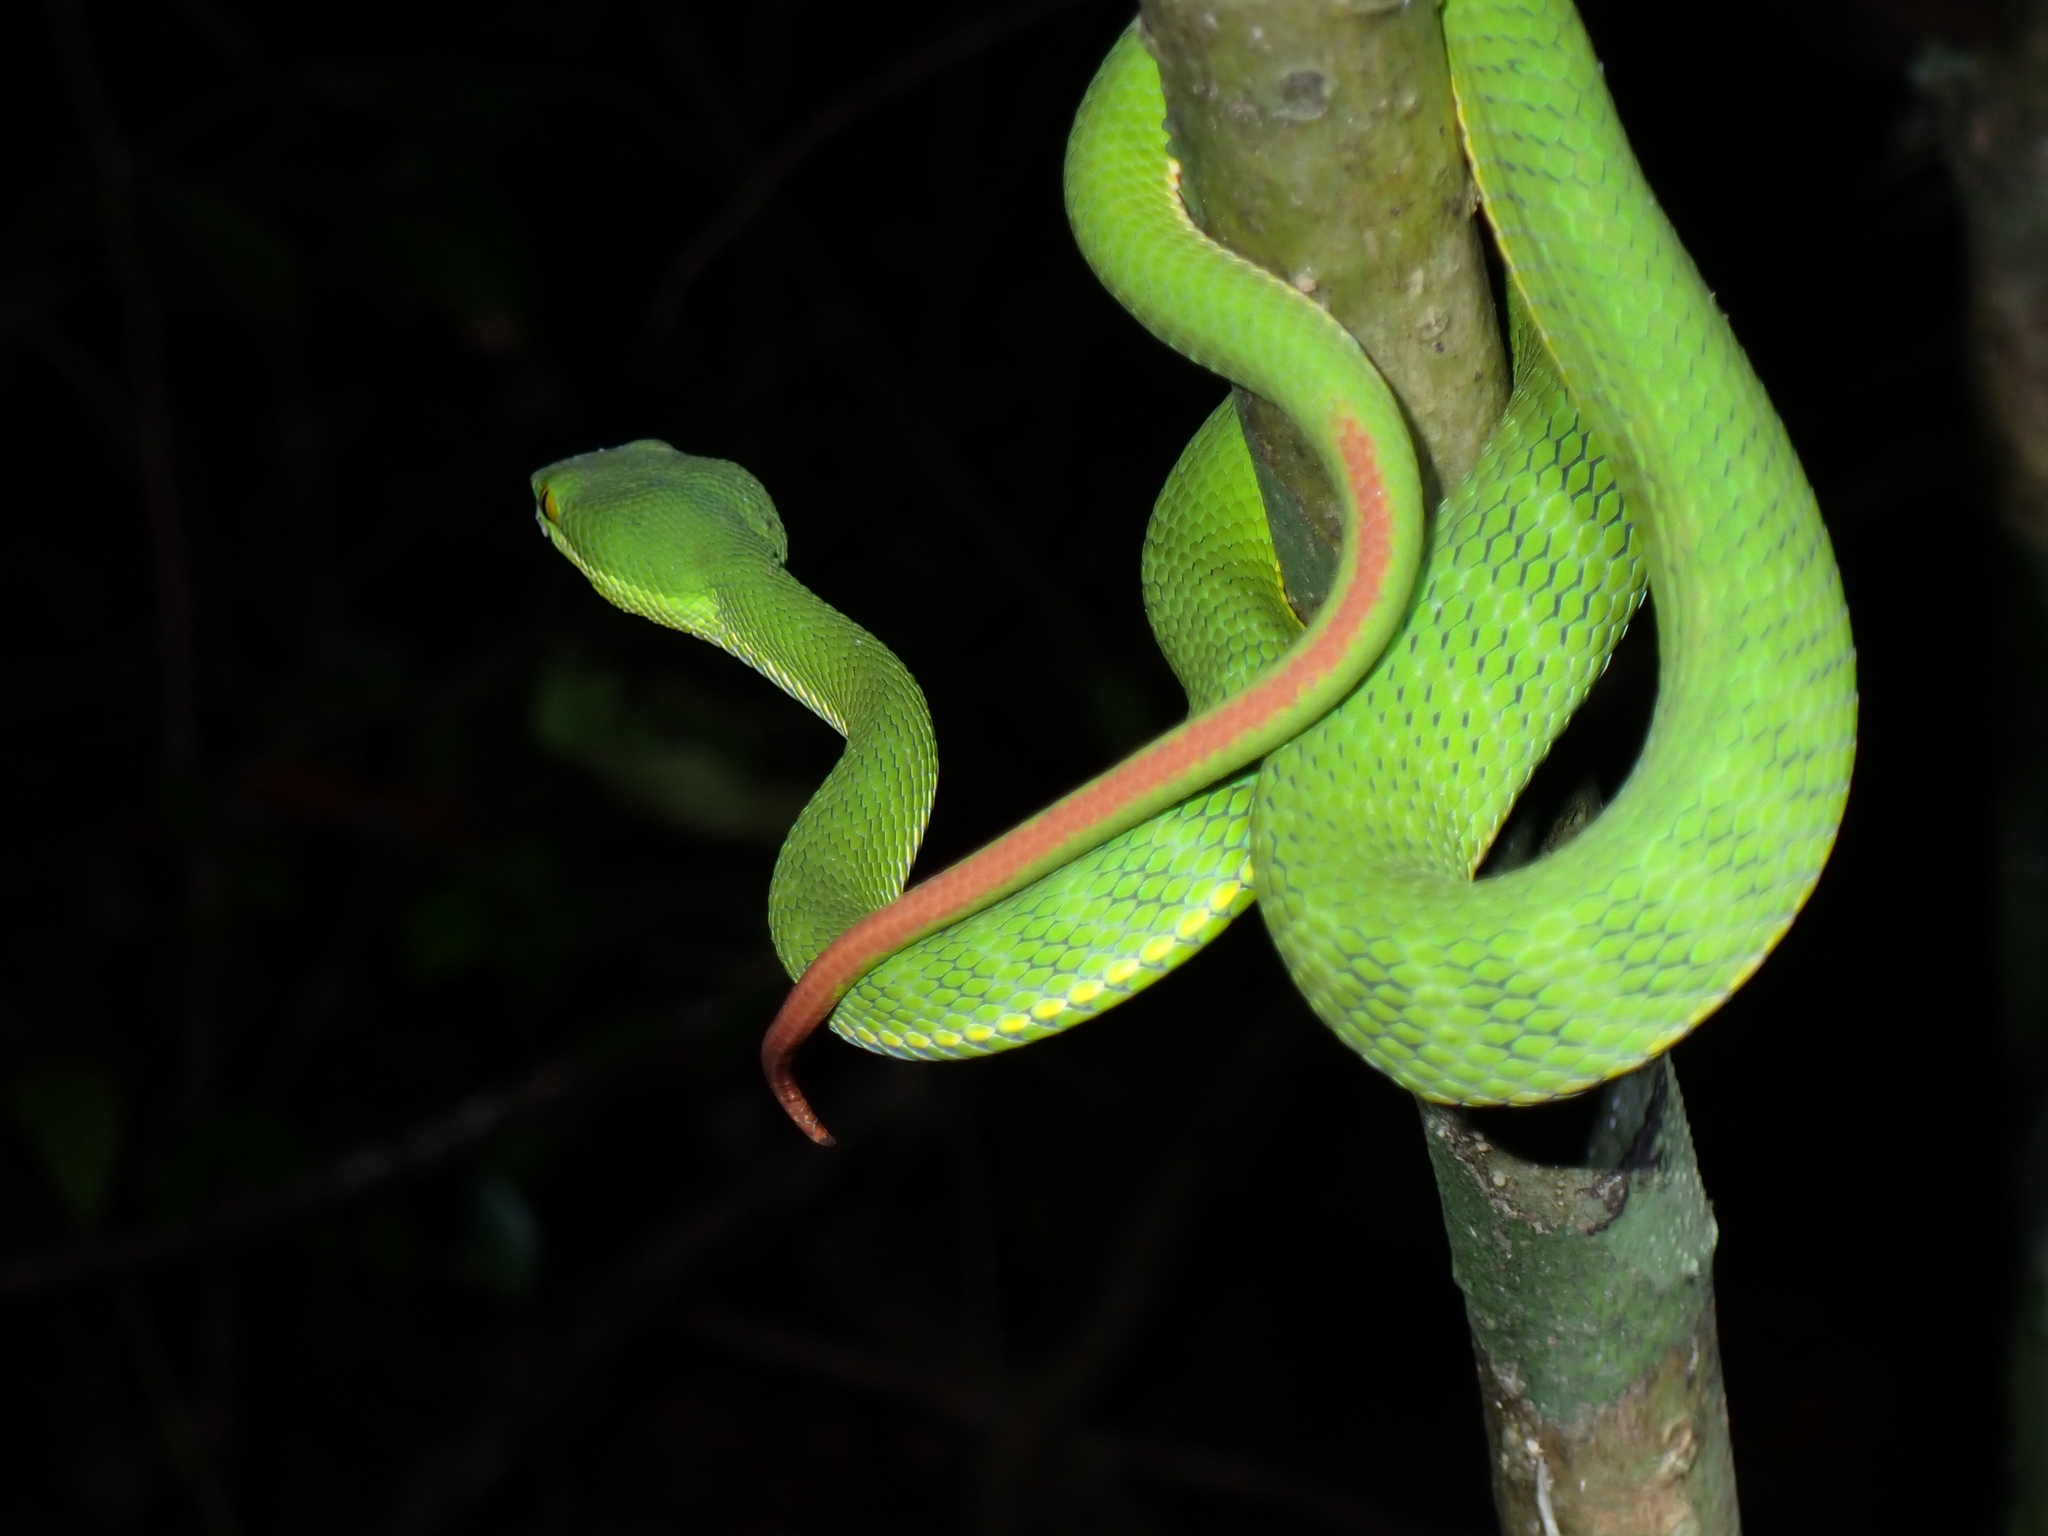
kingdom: Animalia
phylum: Chordata
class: Squamata
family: Viperidae
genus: Trimeresurus
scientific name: Trimeresurus albolabris
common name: White-lipped pitviper
